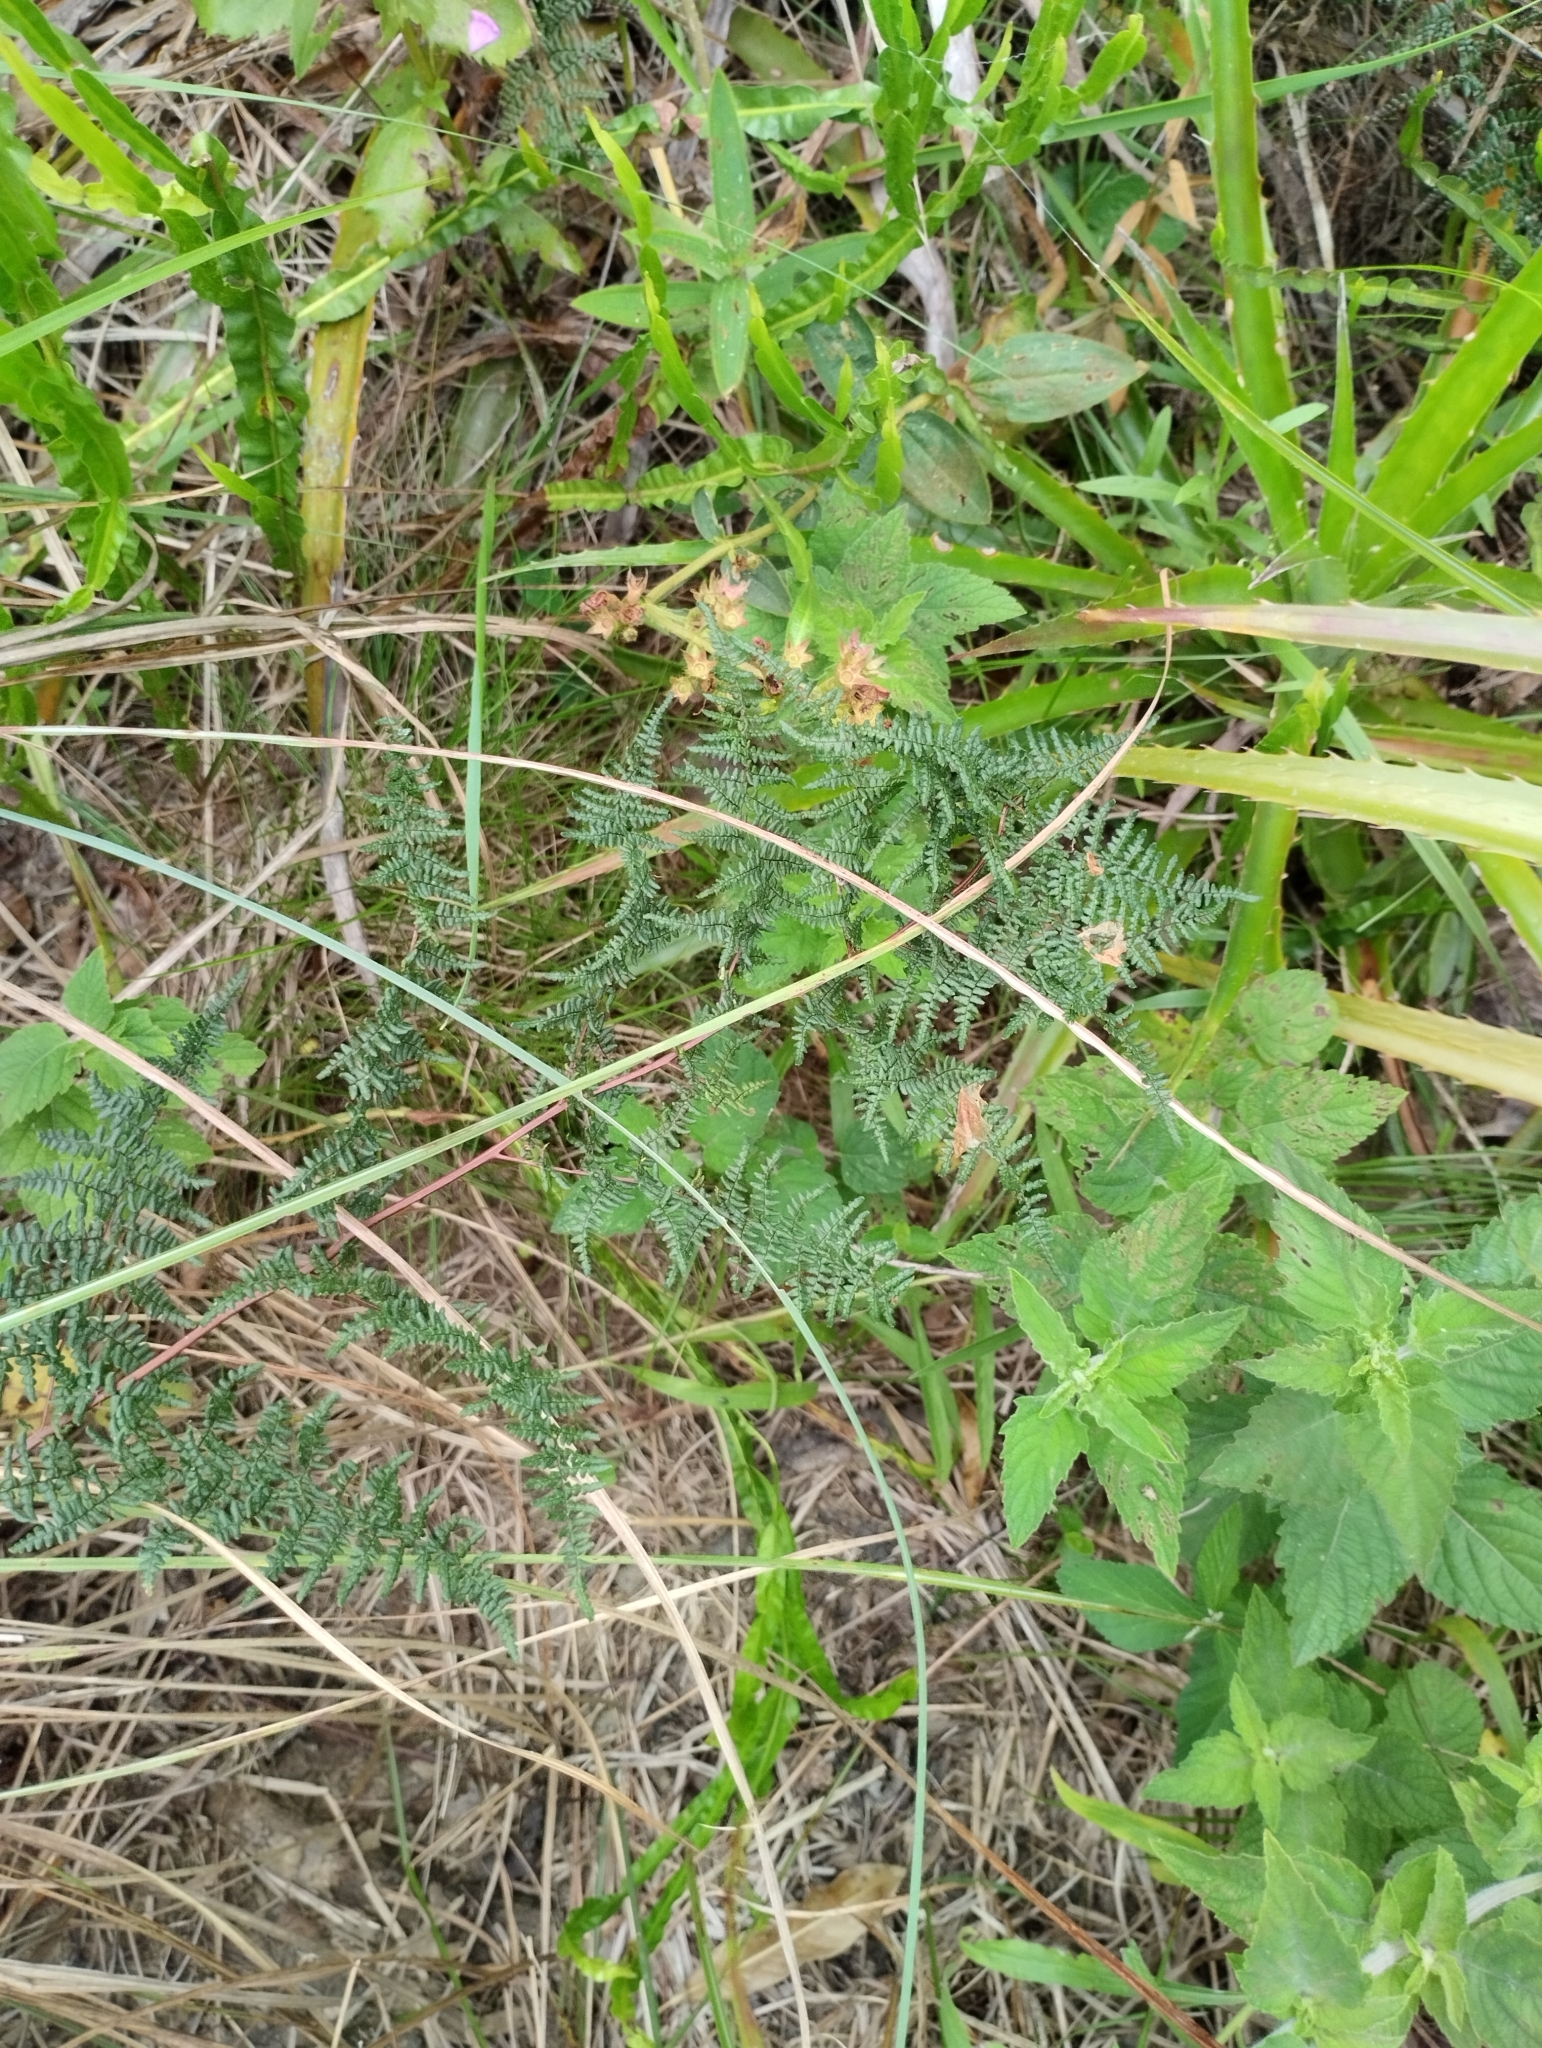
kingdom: Plantae
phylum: Tracheophyta
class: Polypodiopsida
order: Polypodiales
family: Pteridaceae
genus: Adiantopsis
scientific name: Adiantopsis chlorophylla
